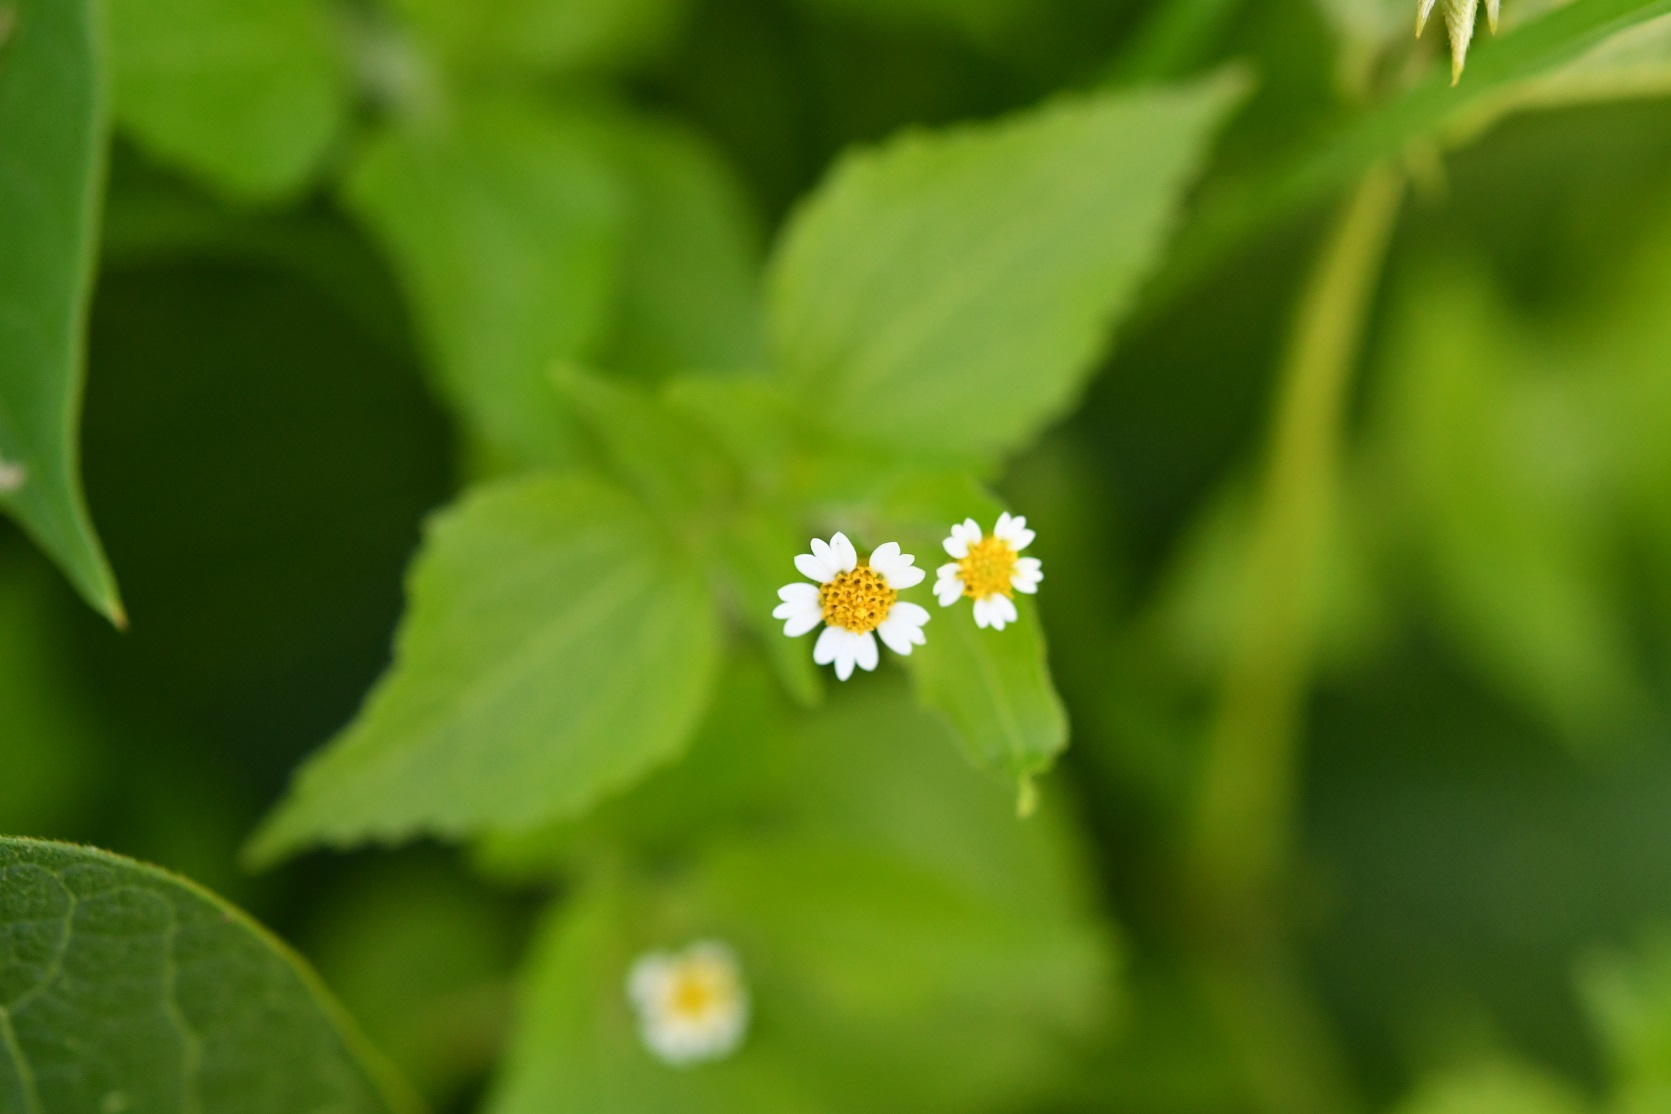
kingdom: Plantae
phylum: Tracheophyta
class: Magnoliopsida
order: Asterales
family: Asteraceae
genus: Galinsoga
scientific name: Galinsoga quadriradiata
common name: Shaggy soldier
